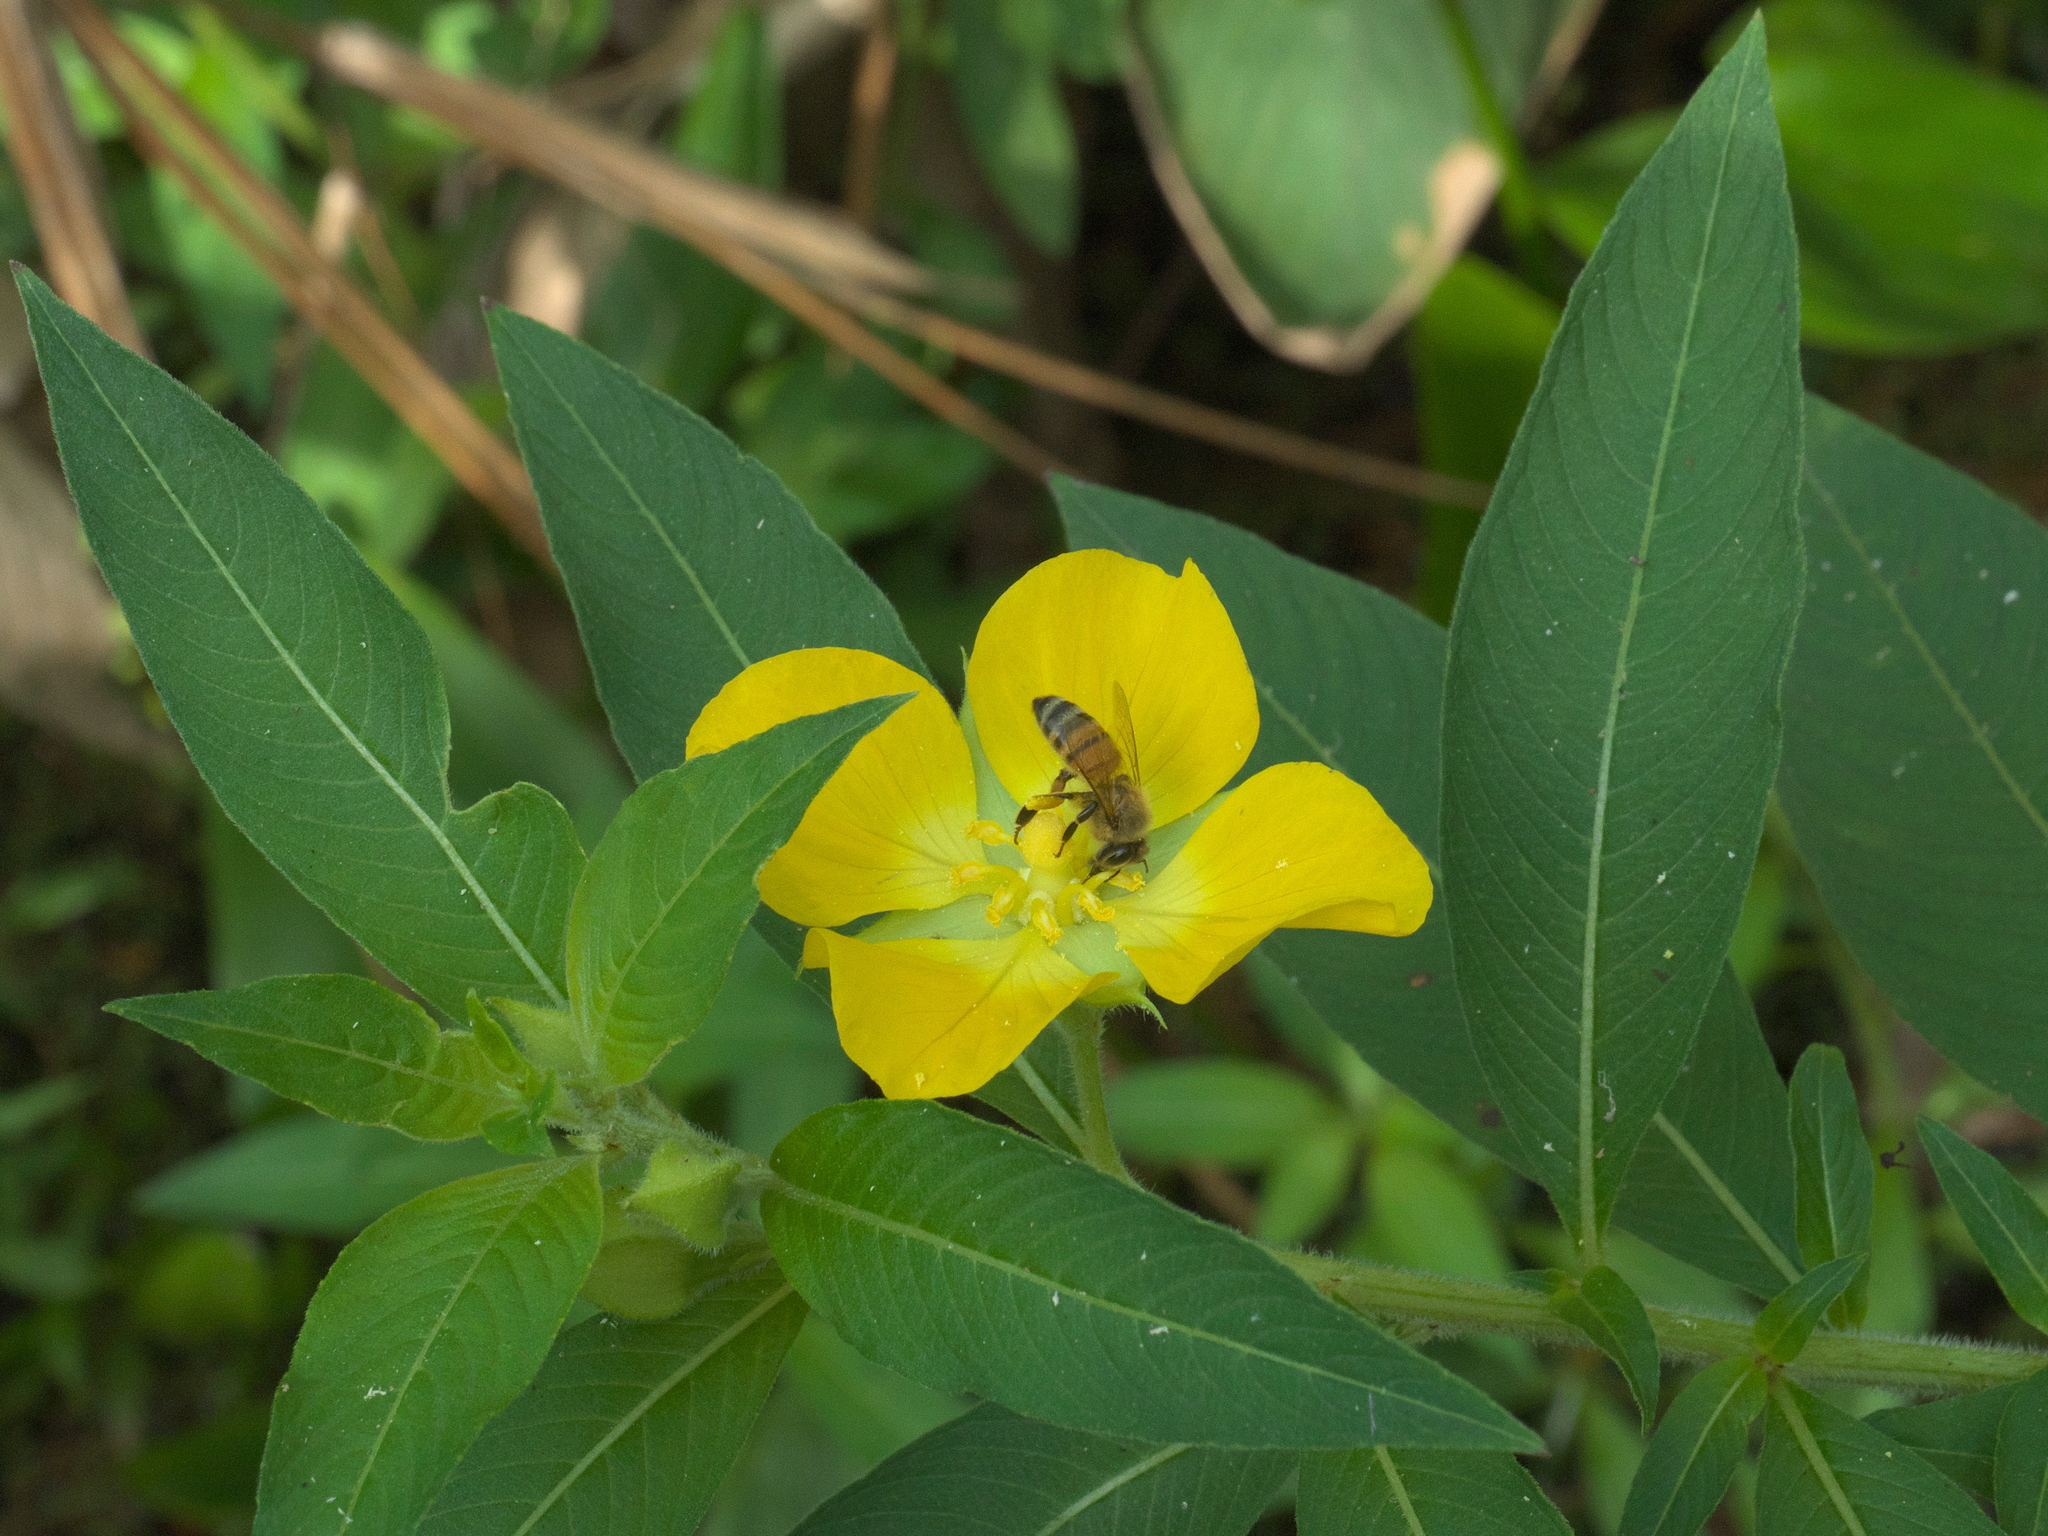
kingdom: Plantae
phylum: Tracheophyta
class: Magnoliopsida
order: Myrtales
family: Onagraceae
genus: Ludwigia
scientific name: Ludwigia peruviana
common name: Peruvian primrose-willow
